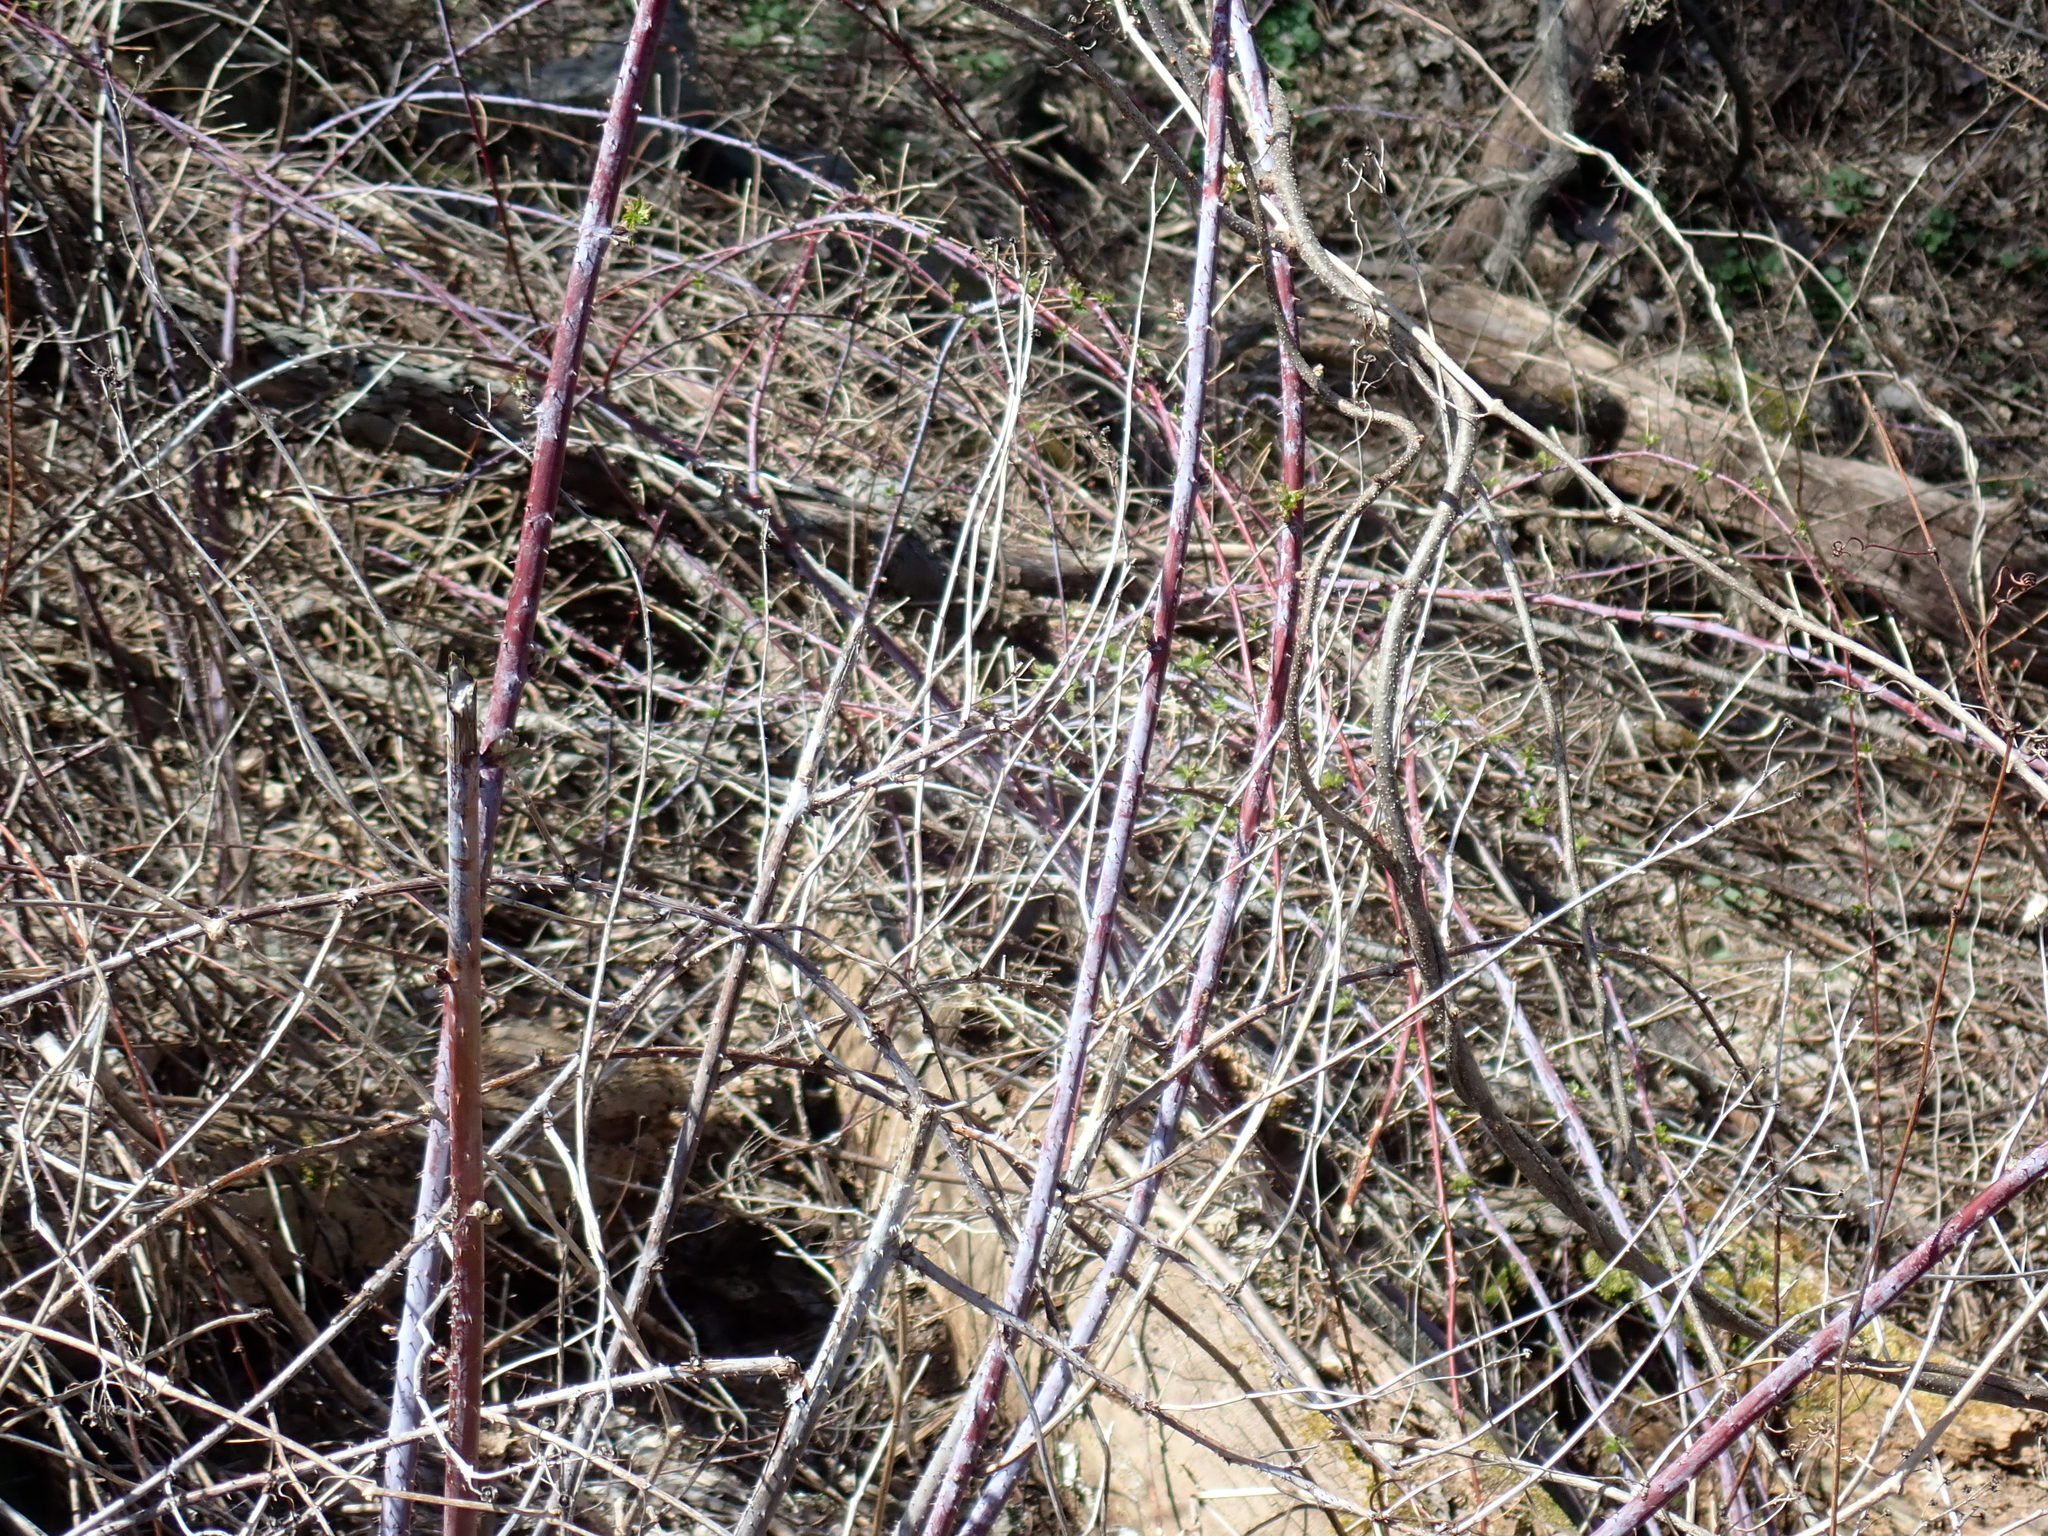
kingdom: Plantae
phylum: Tracheophyta
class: Magnoliopsida
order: Rosales
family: Rosaceae
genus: Rubus
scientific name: Rubus occidentalis
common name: Black raspberry
